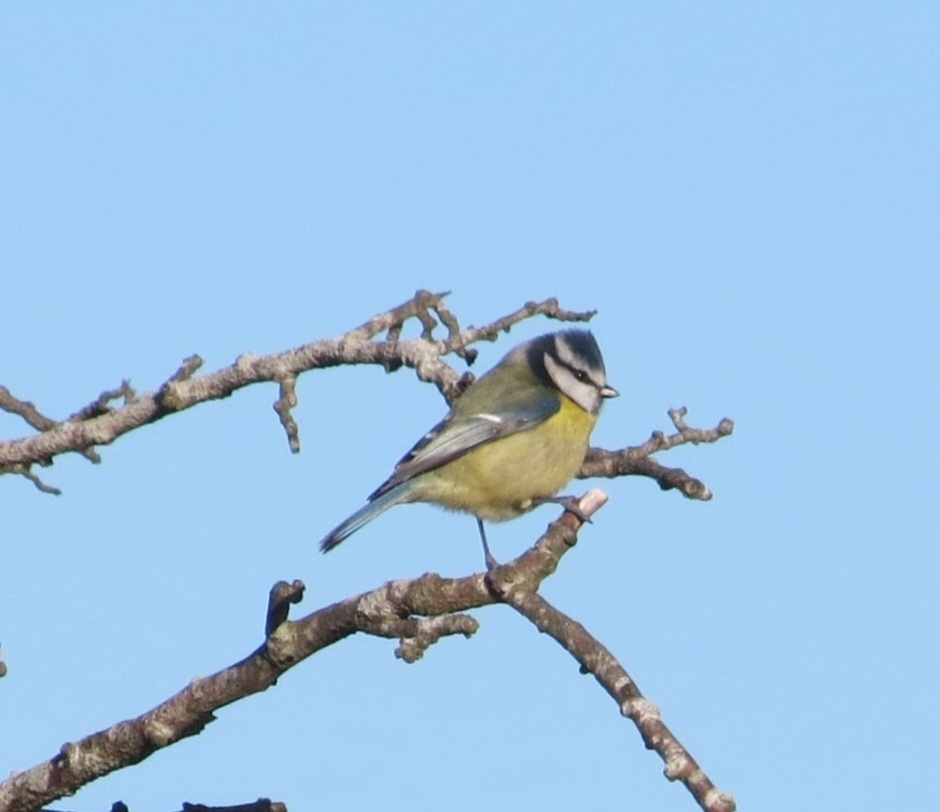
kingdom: Animalia
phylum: Chordata
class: Aves
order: Passeriformes
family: Paridae
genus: Cyanistes
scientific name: Cyanistes caeruleus
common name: Eurasian blue tit
